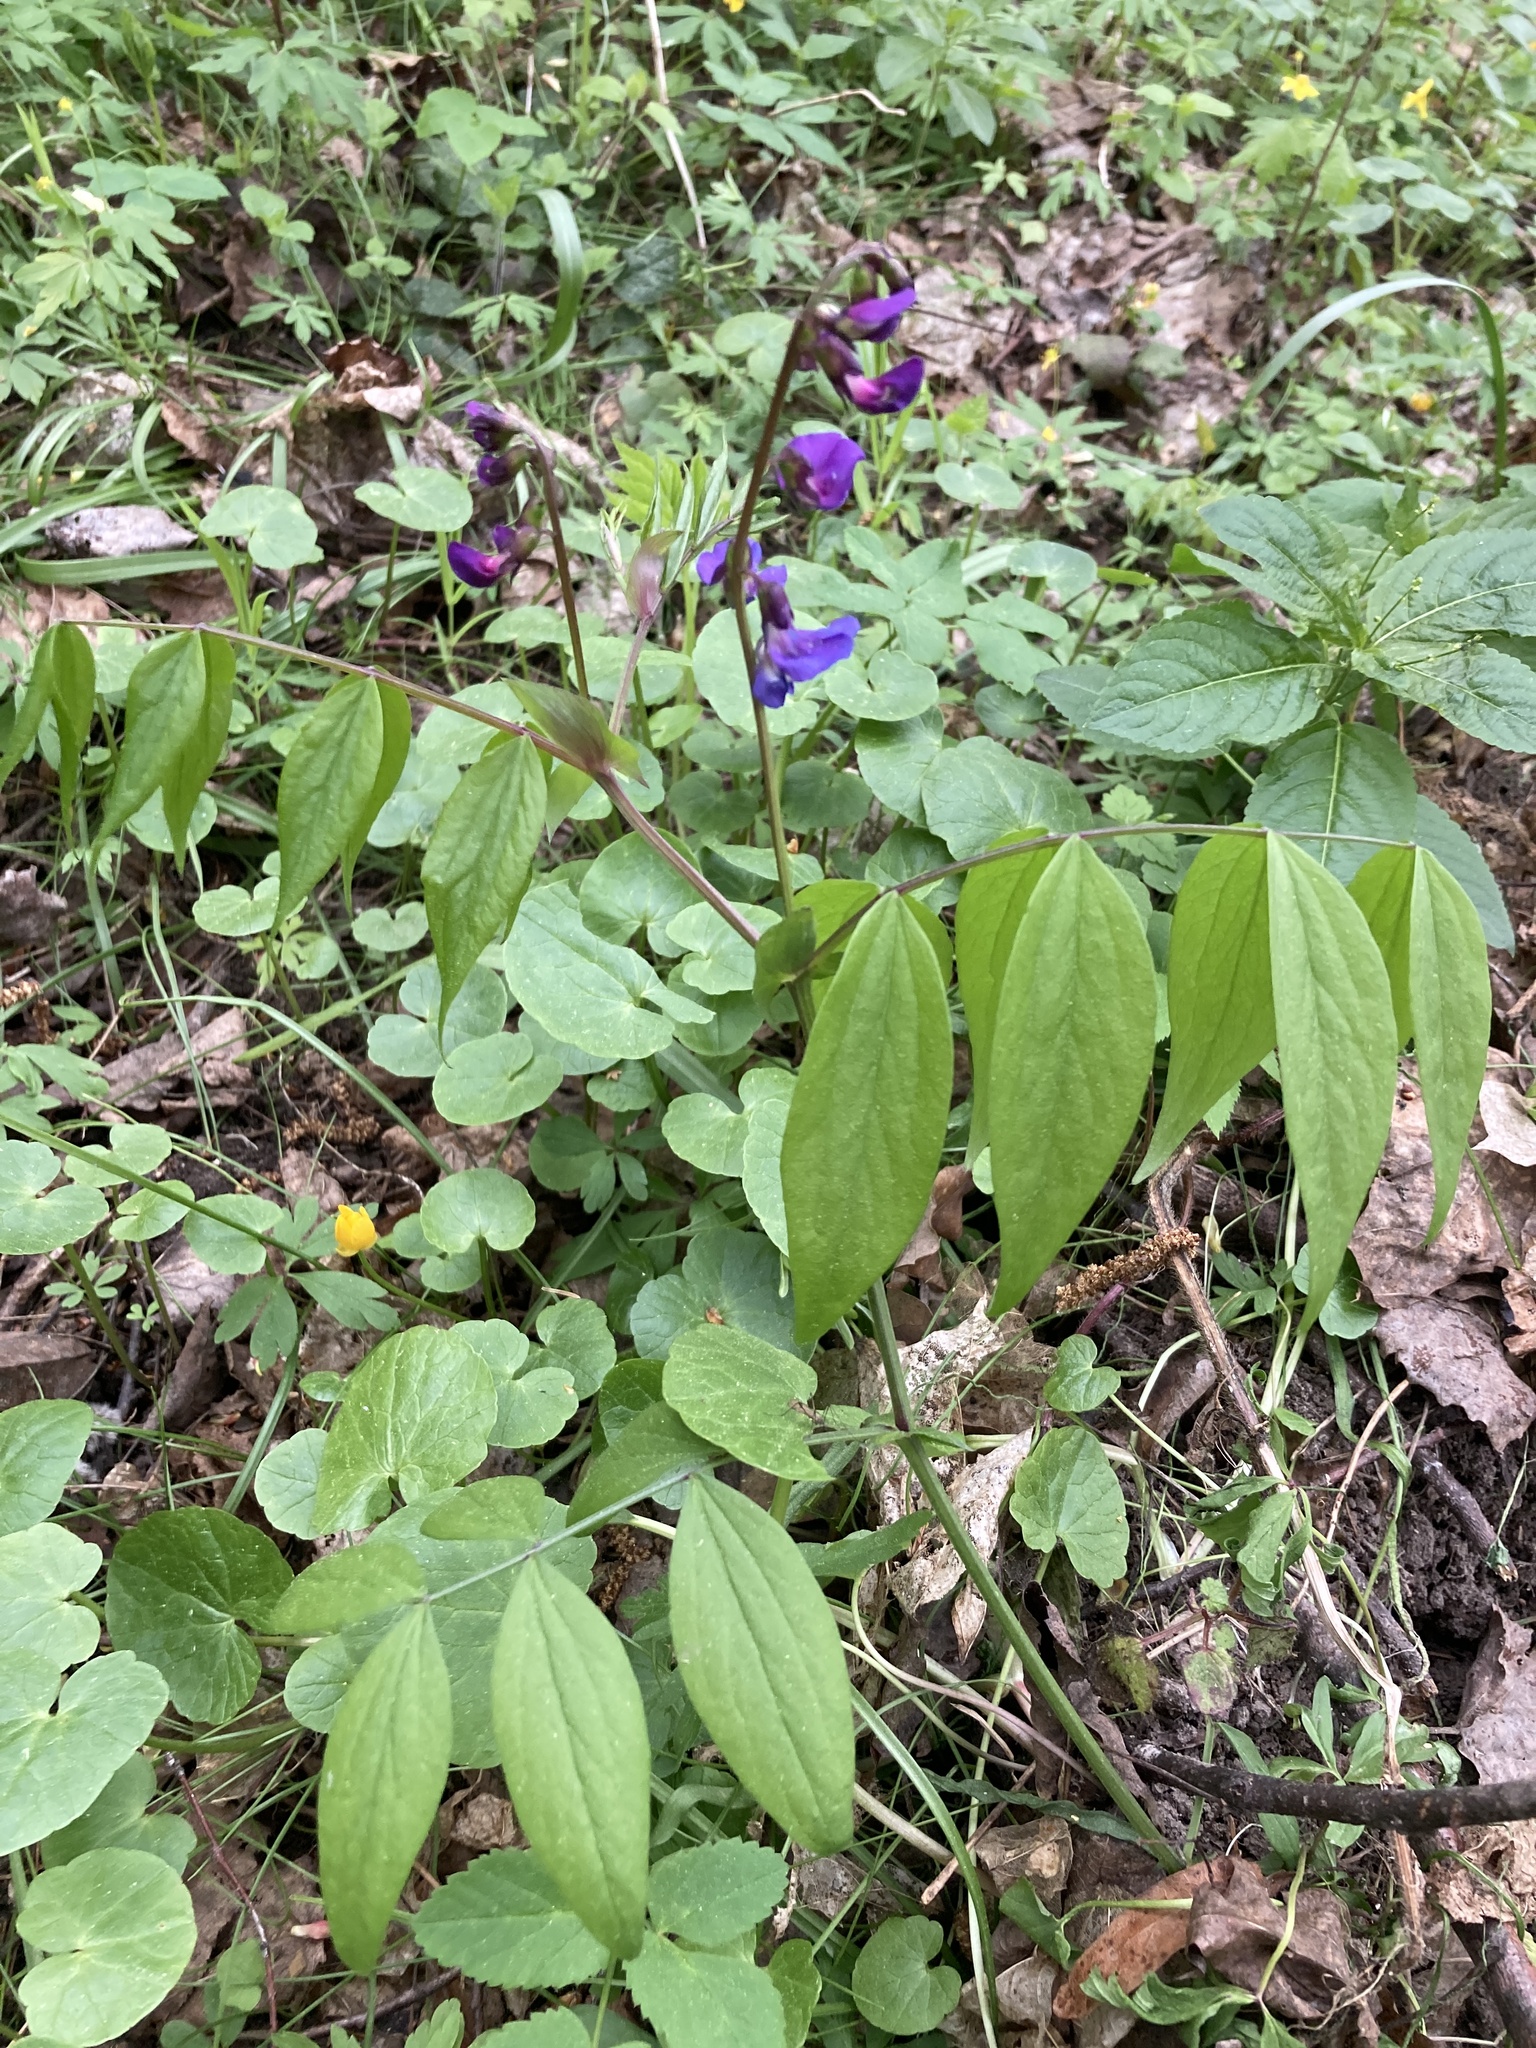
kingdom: Plantae
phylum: Tracheophyta
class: Magnoliopsida
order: Fabales
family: Fabaceae
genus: Lathyrus
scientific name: Lathyrus vernus
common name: Spring pea
